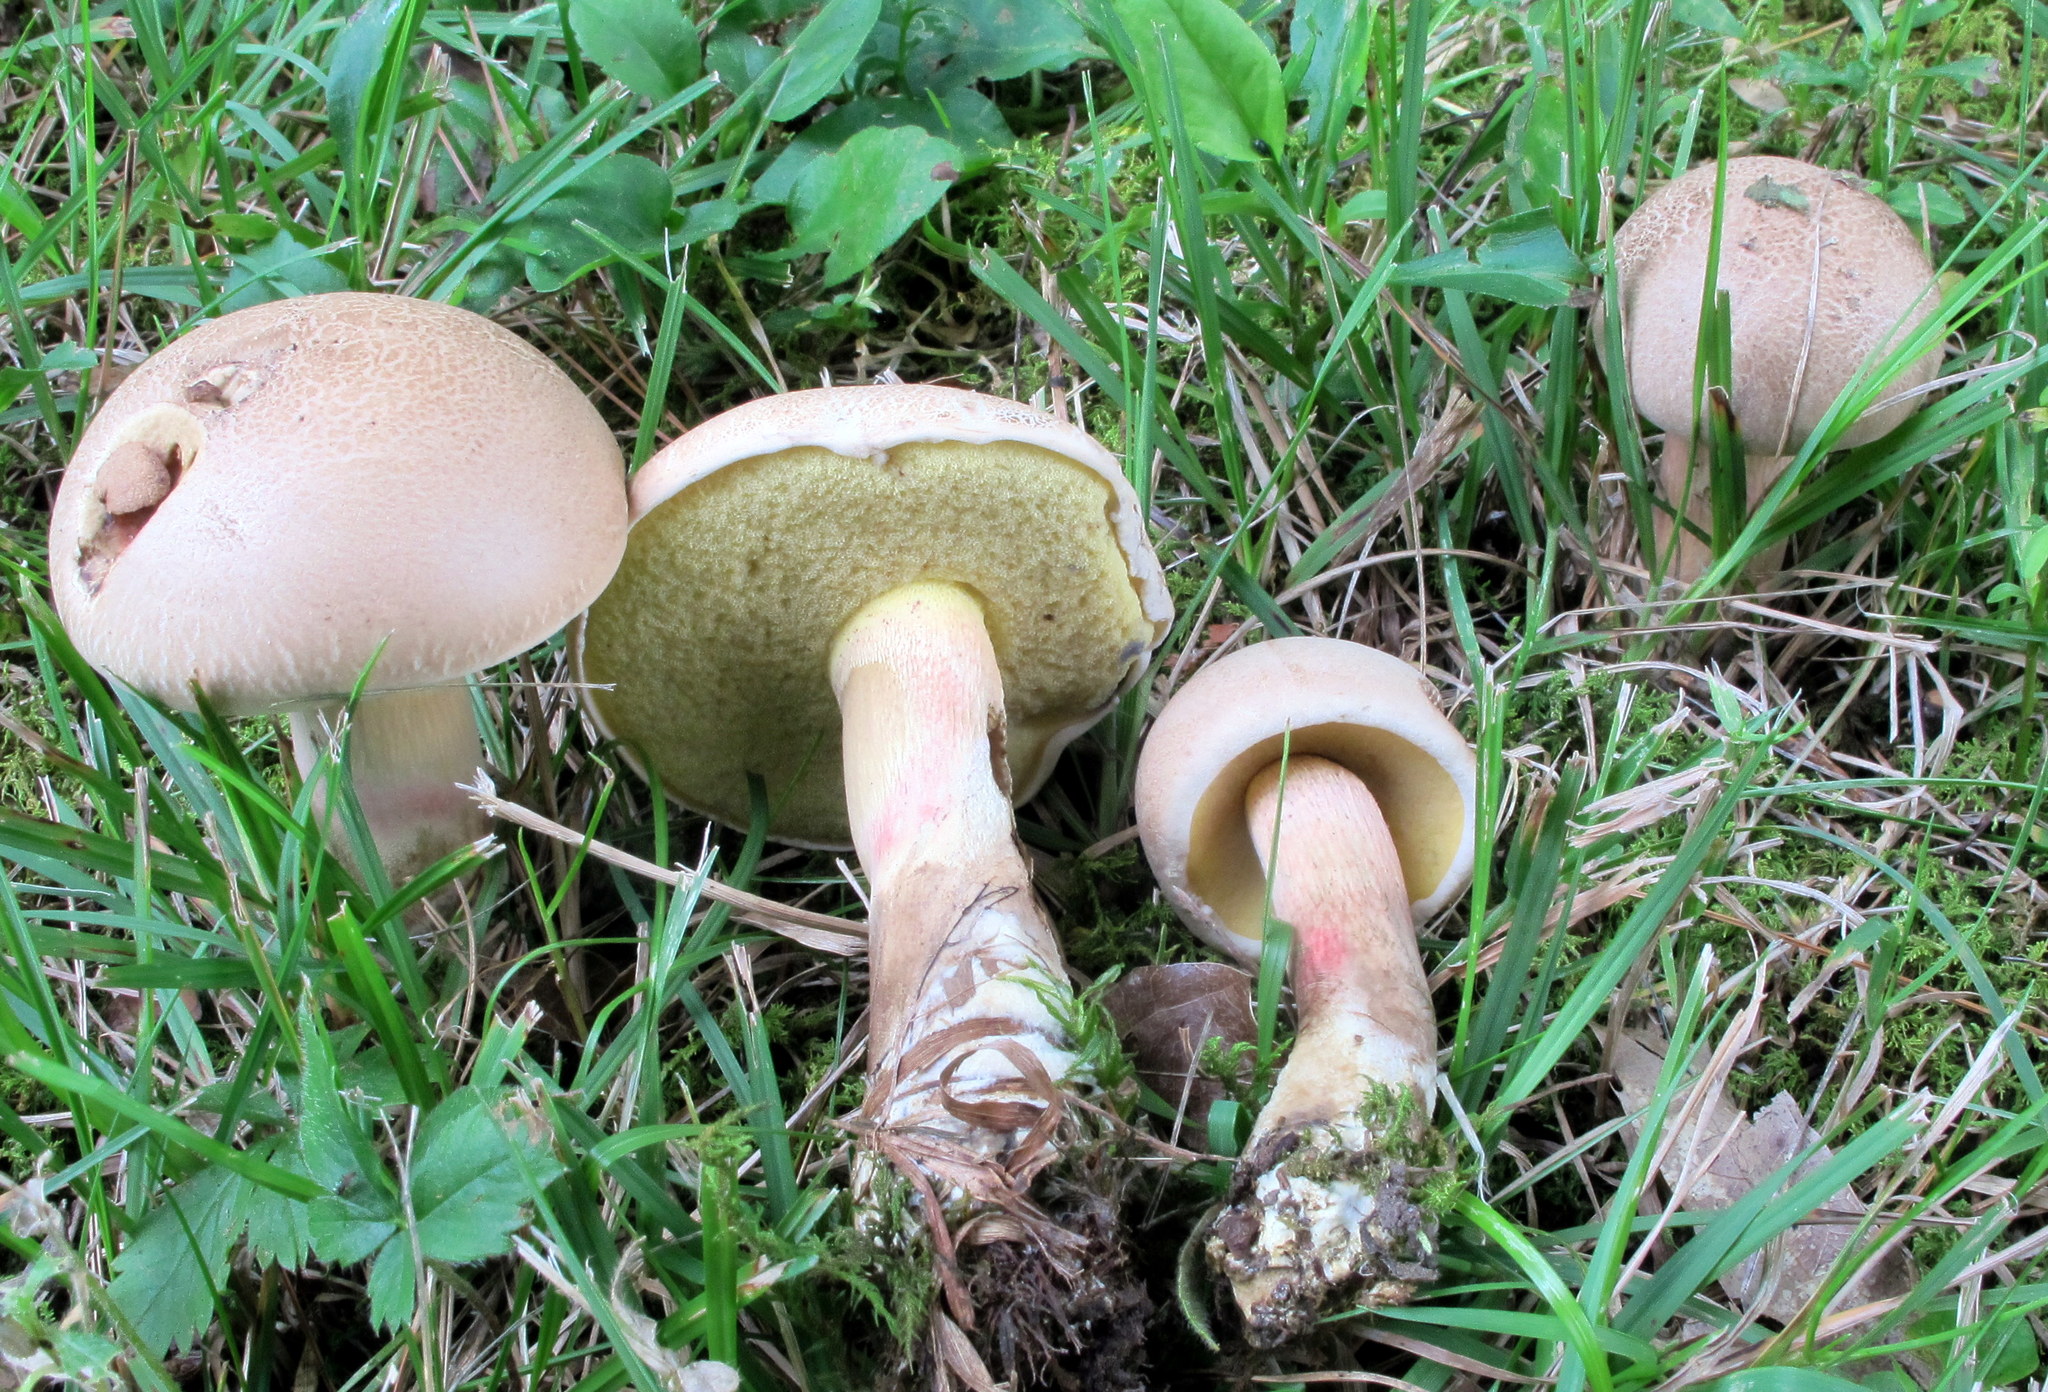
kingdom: Fungi
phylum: Basidiomycota
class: Agaricomycetes
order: Boletales
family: Boletaceae
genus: Caloboletus
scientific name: Caloboletus inedulis
